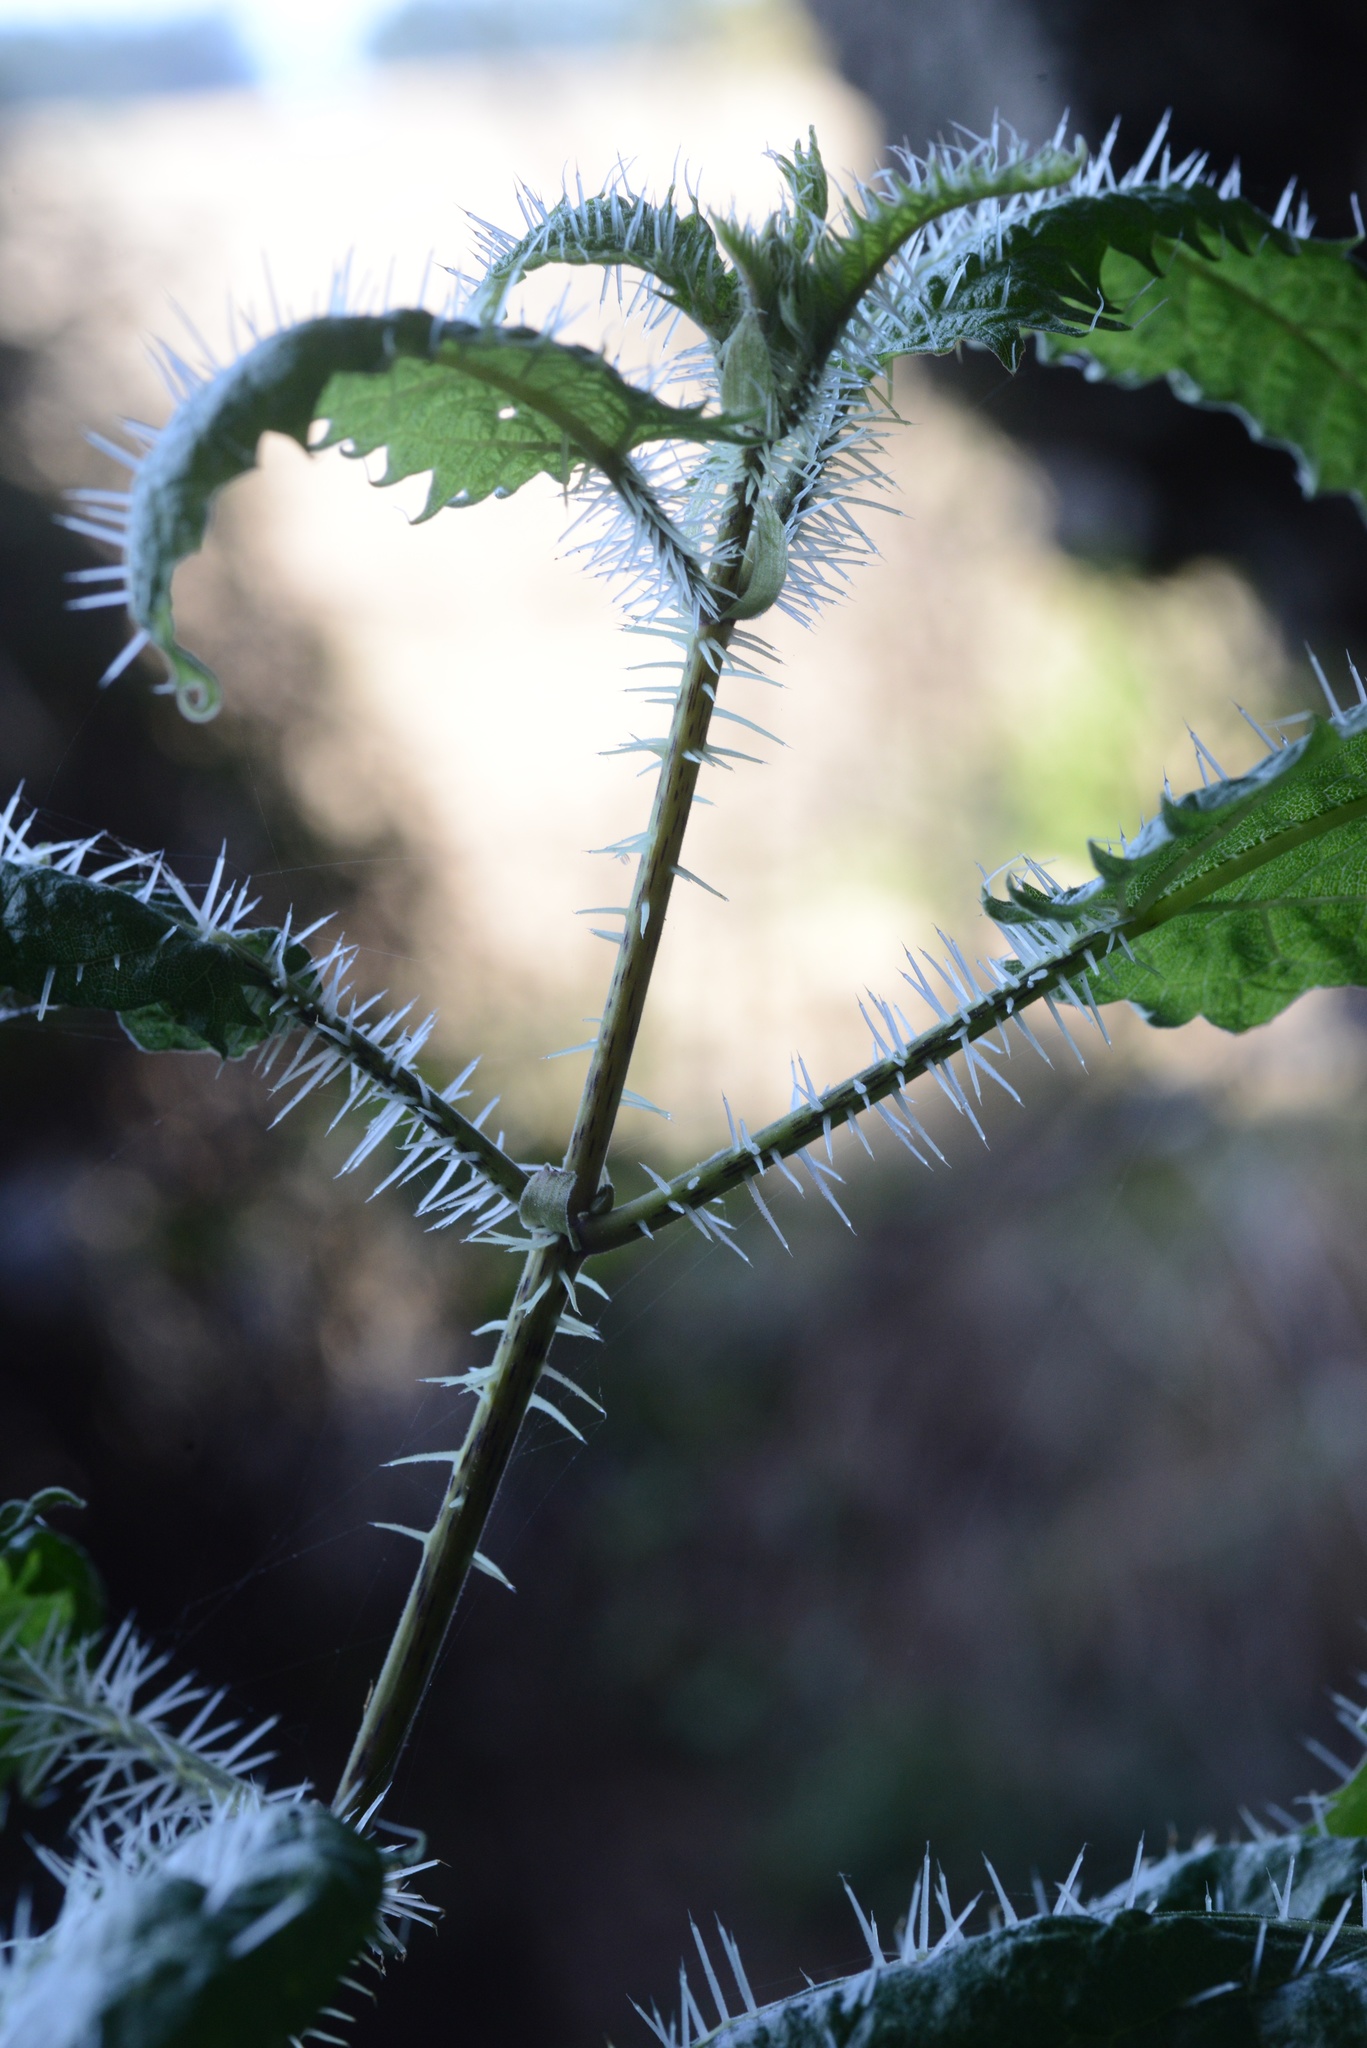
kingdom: Plantae
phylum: Tracheophyta
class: Magnoliopsida
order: Rosales
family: Urticaceae
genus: Urtica
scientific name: Urtica ferox
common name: Tree nettle
